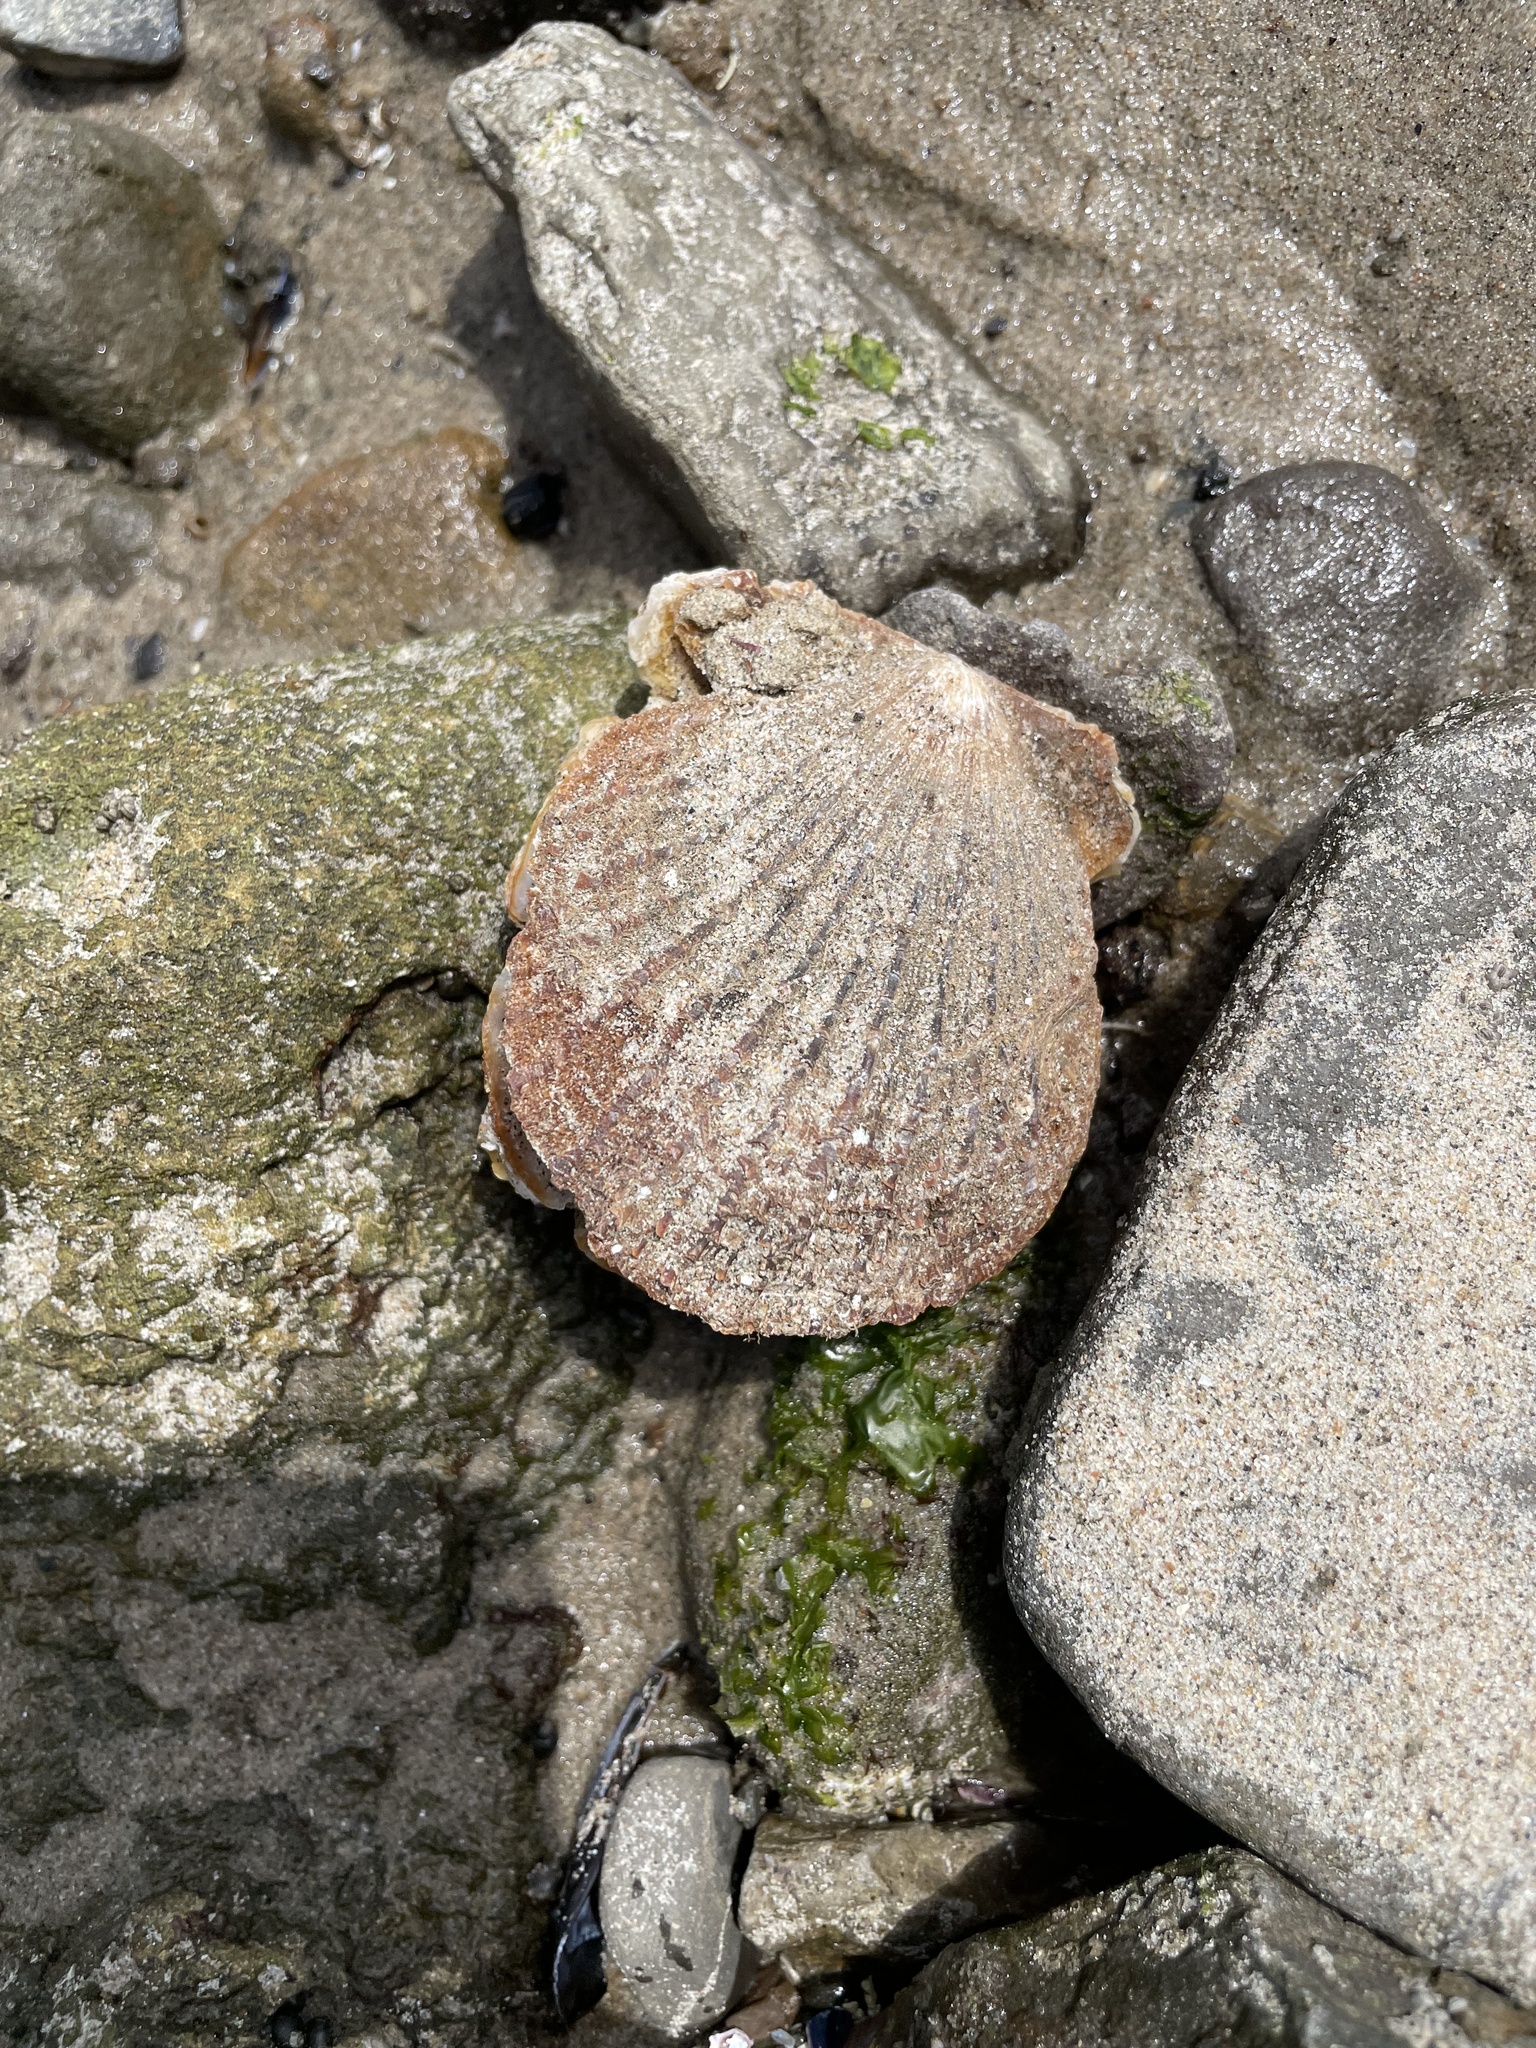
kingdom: Animalia
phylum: Mollusca
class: Bivalvia
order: Pectinida
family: Pectinidae
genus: Crassadoma
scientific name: Crassadoma gigantea
